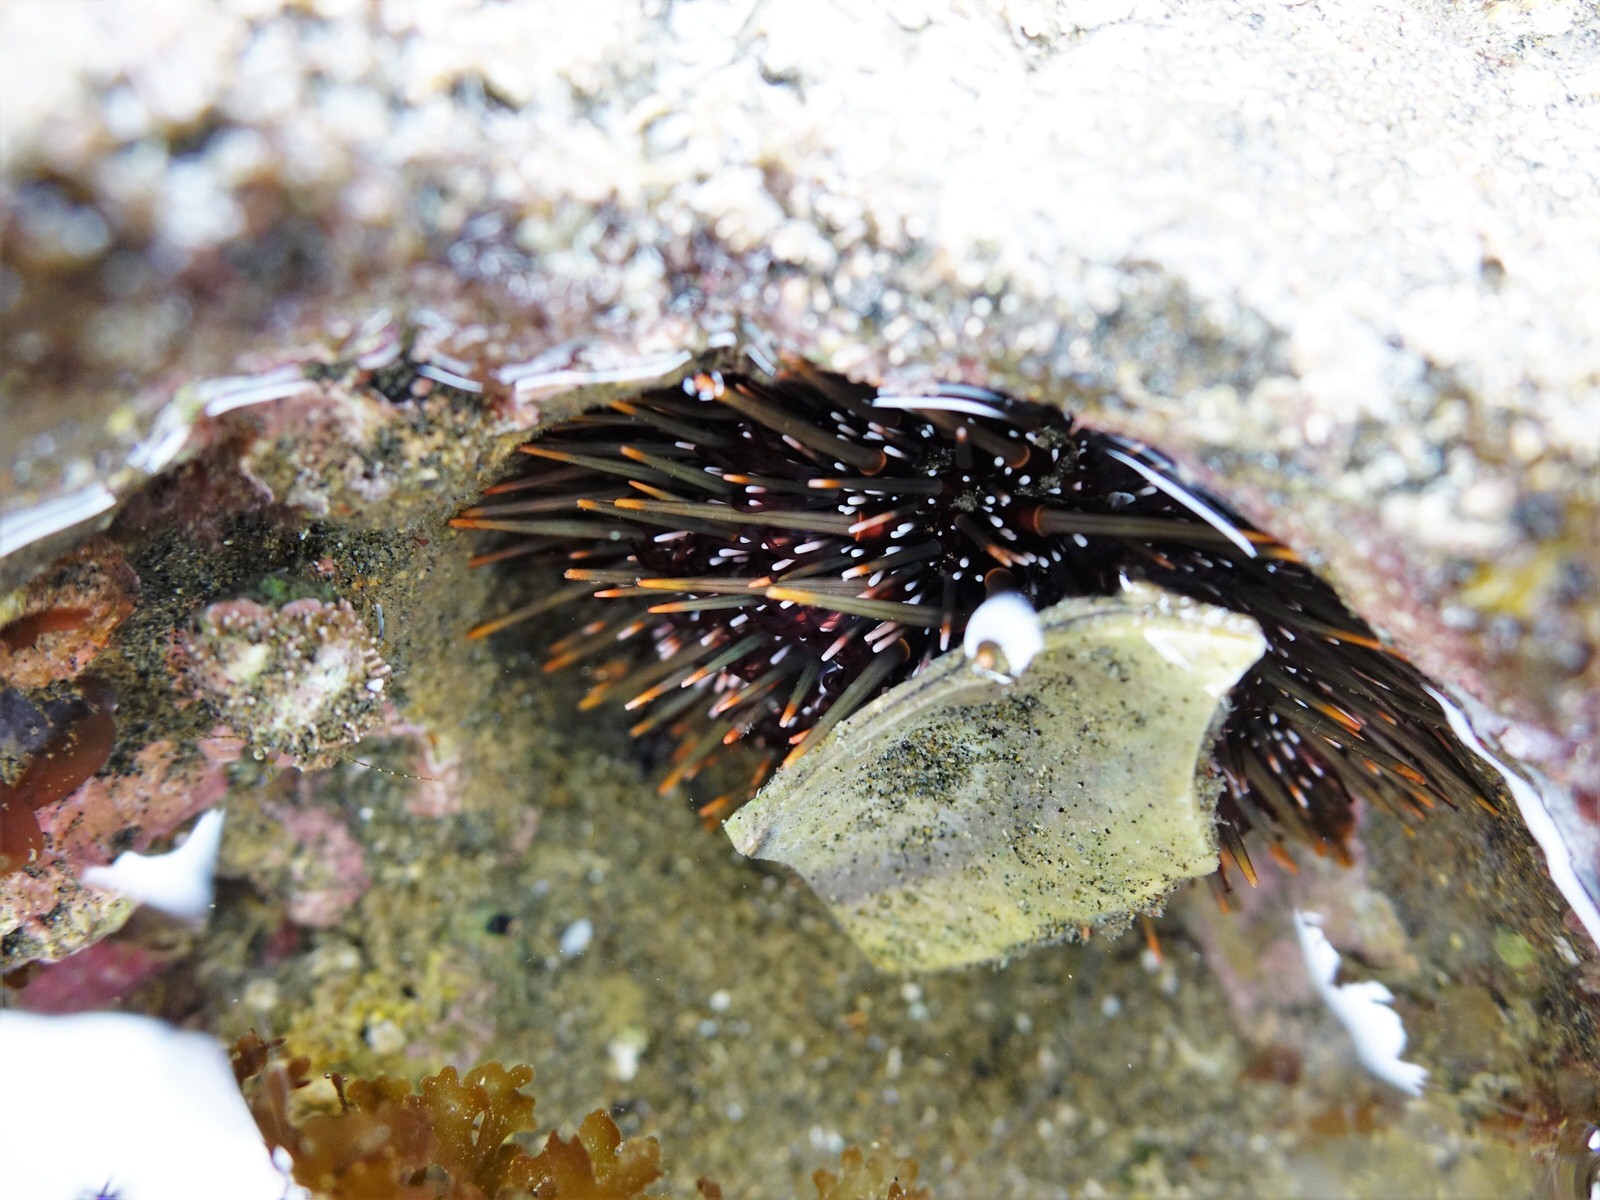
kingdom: Animalia
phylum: Echinodermata
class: Echinoidea
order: Camarodonta
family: Echinometridae
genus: Evechinus
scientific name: Evechinus chloroticus
